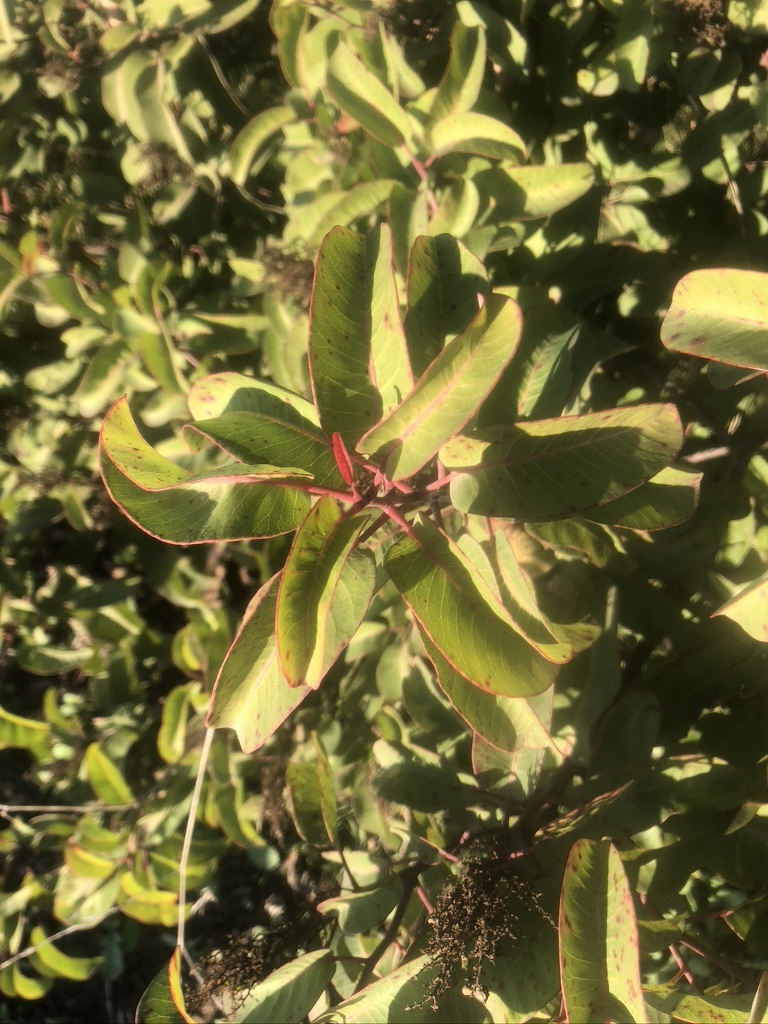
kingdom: Plantae
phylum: Tracheophyta
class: Magnoliopsida
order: Sapindales
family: Anacardiaceae
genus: Malosma
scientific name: Malosma laurina
